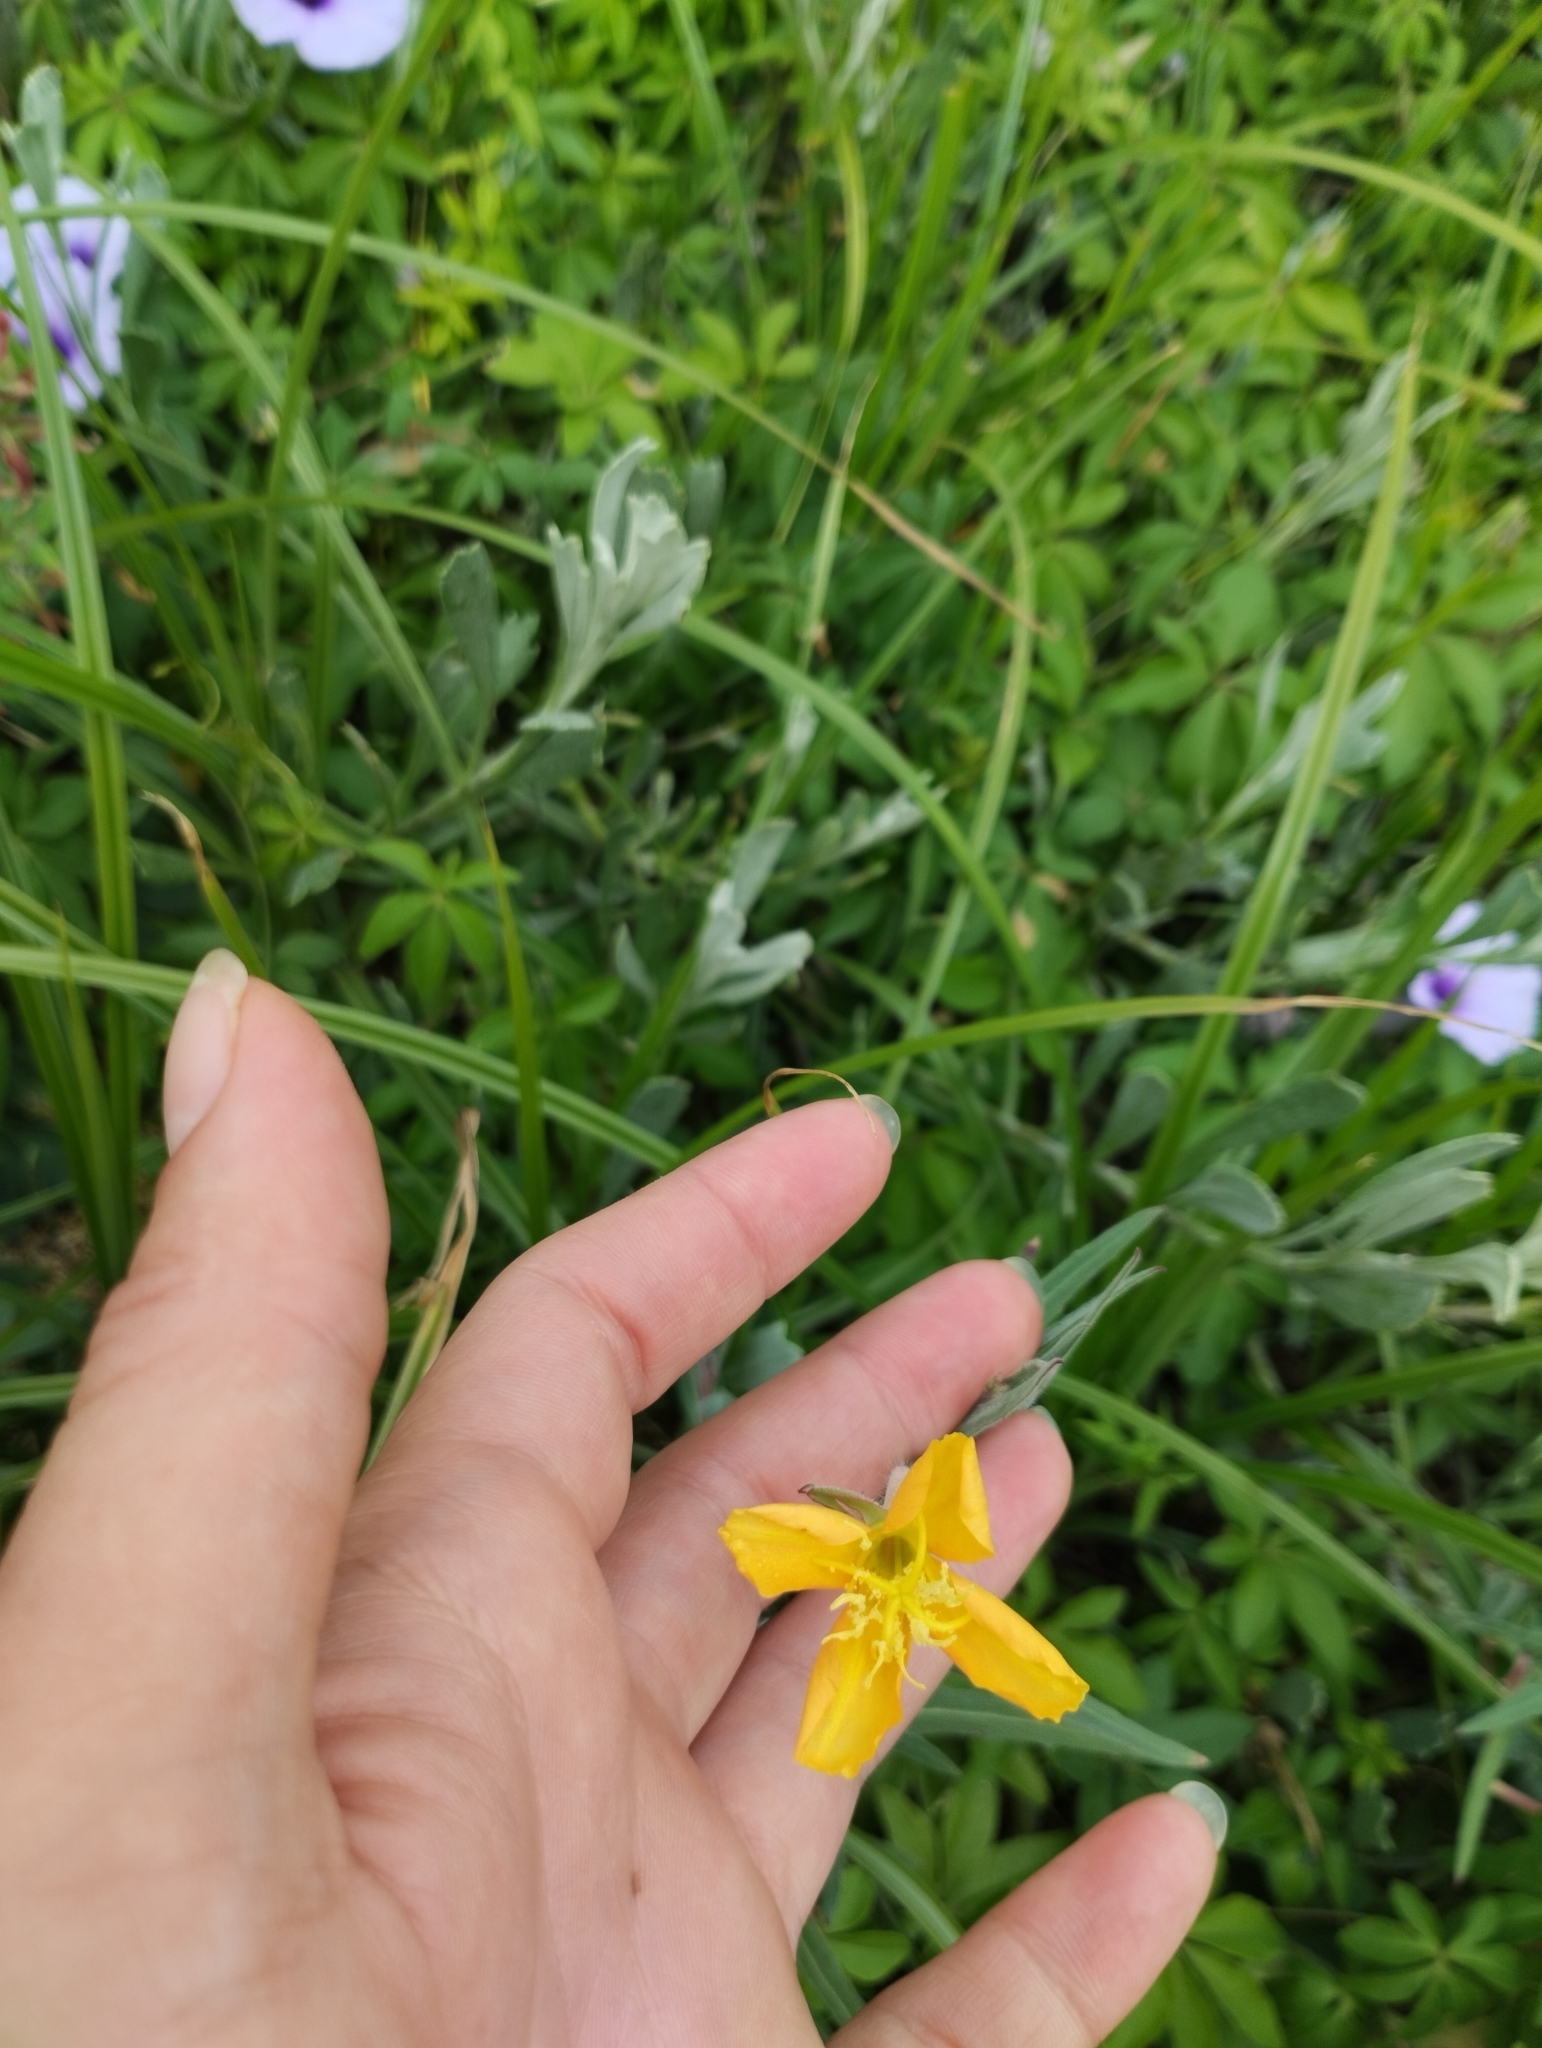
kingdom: Plantae
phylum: Tracheophyta
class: Magnoliopsida
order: Myrtales
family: Onagraceae
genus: Oenothera
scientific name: Oenothera mollissima
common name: Argentine evening primrose
